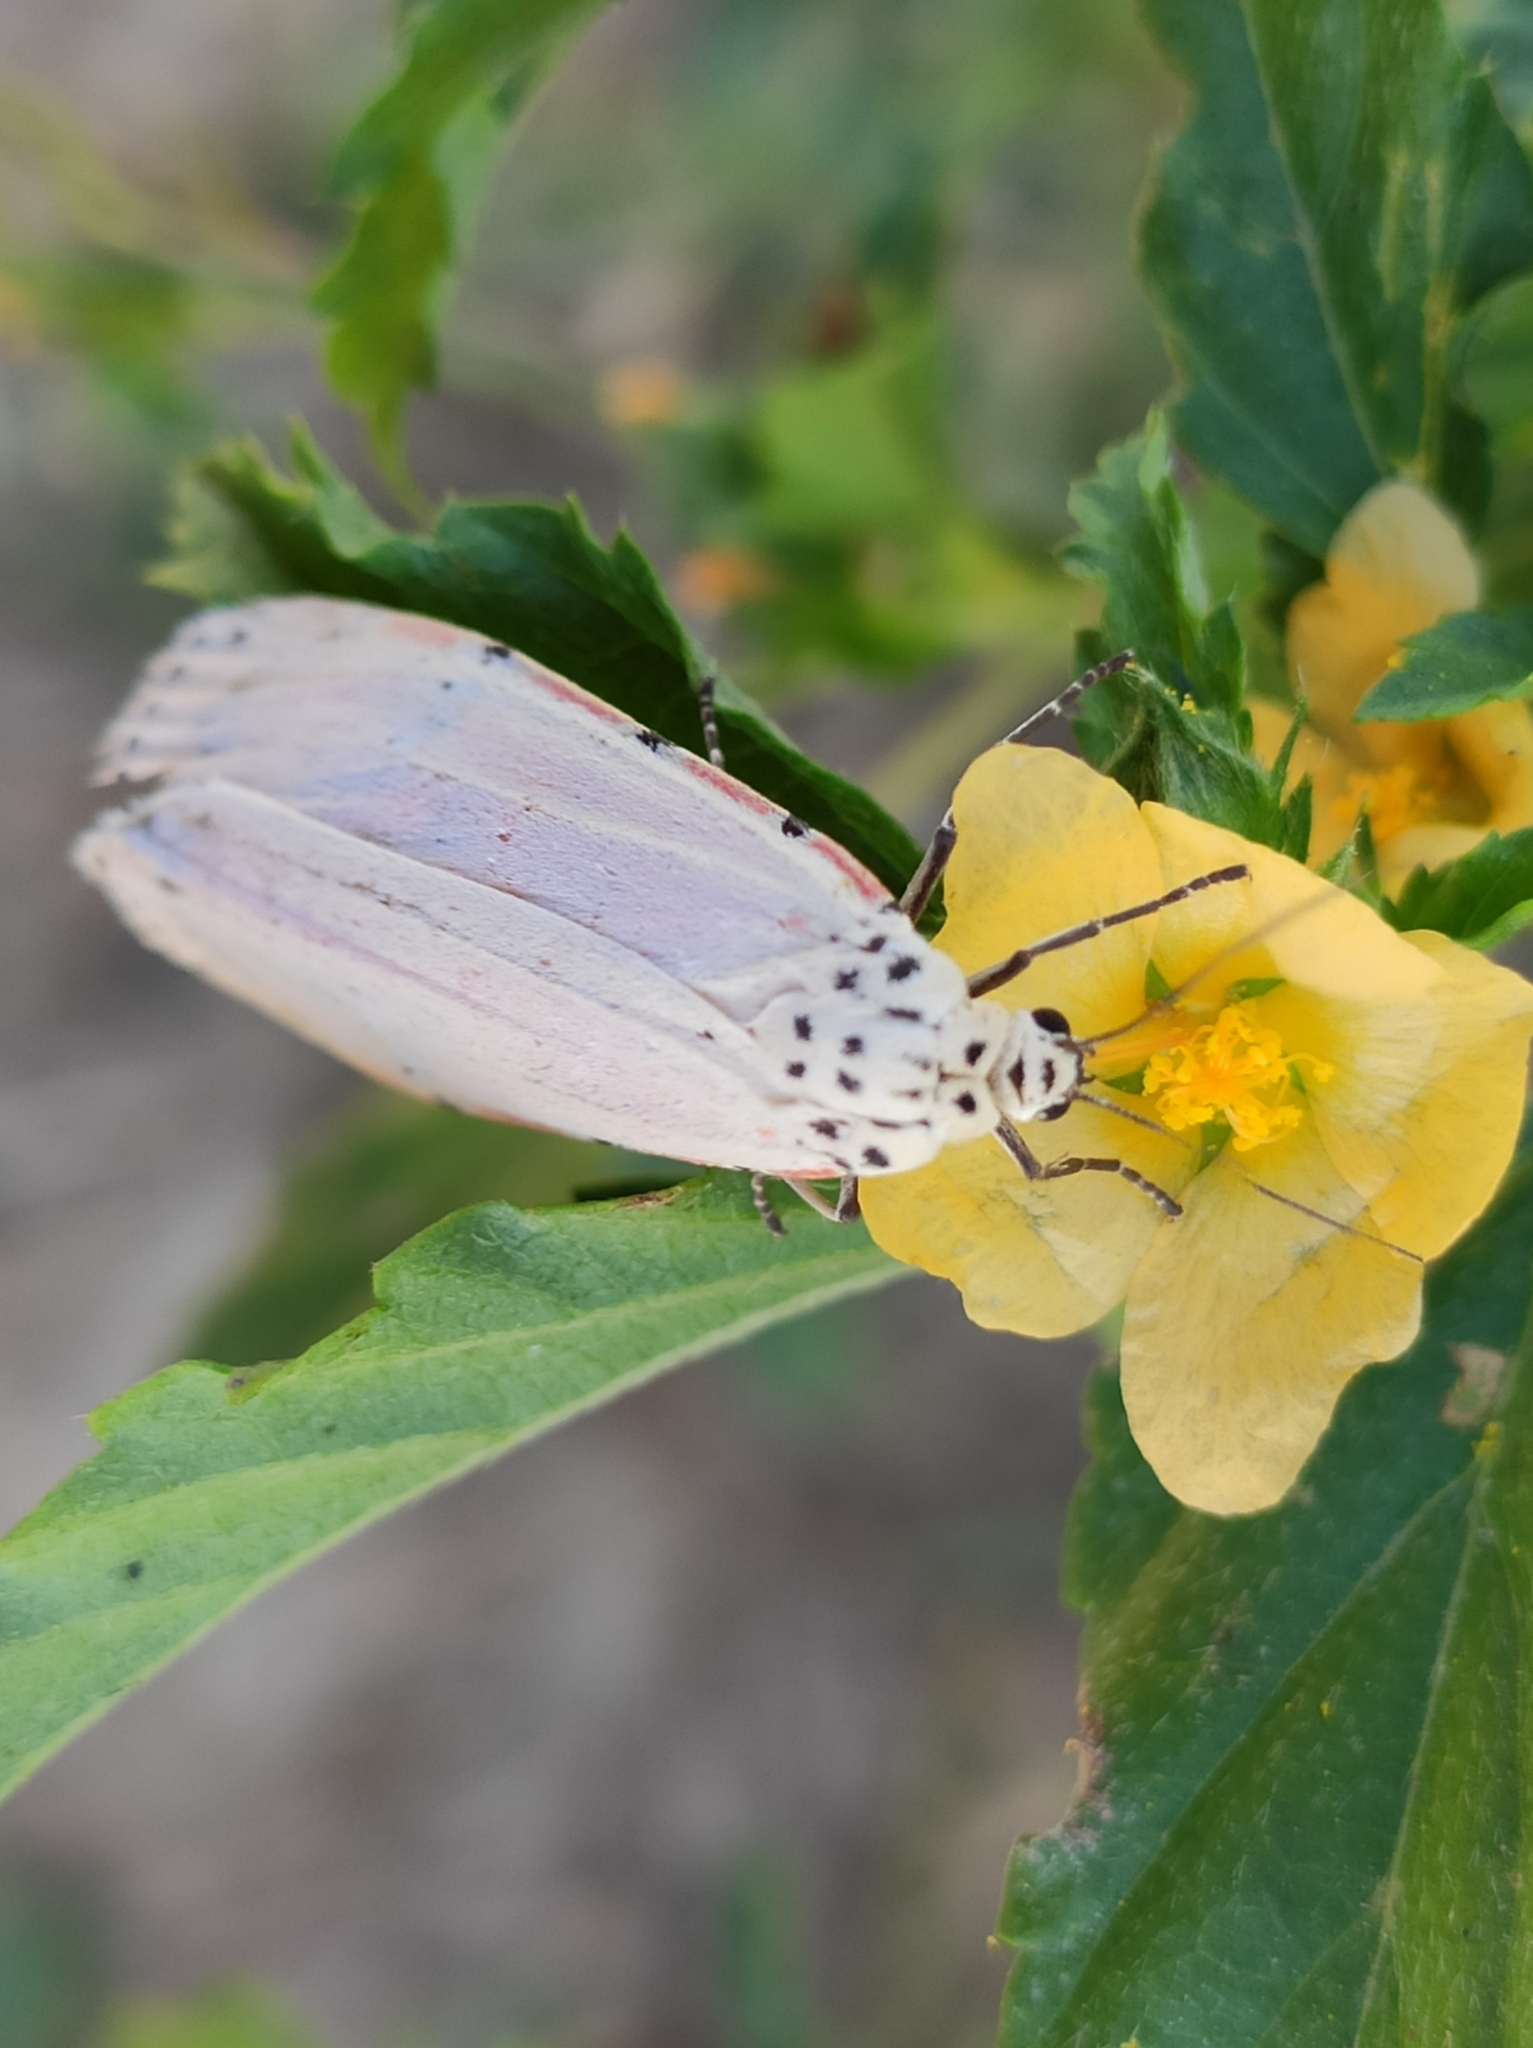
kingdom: Animalia
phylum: Arthropoda
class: Insecta
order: Lepidoptera
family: Erebidae
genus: Utetheisa
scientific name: Utetheisa ornatrix
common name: Beautiful utetheisa
